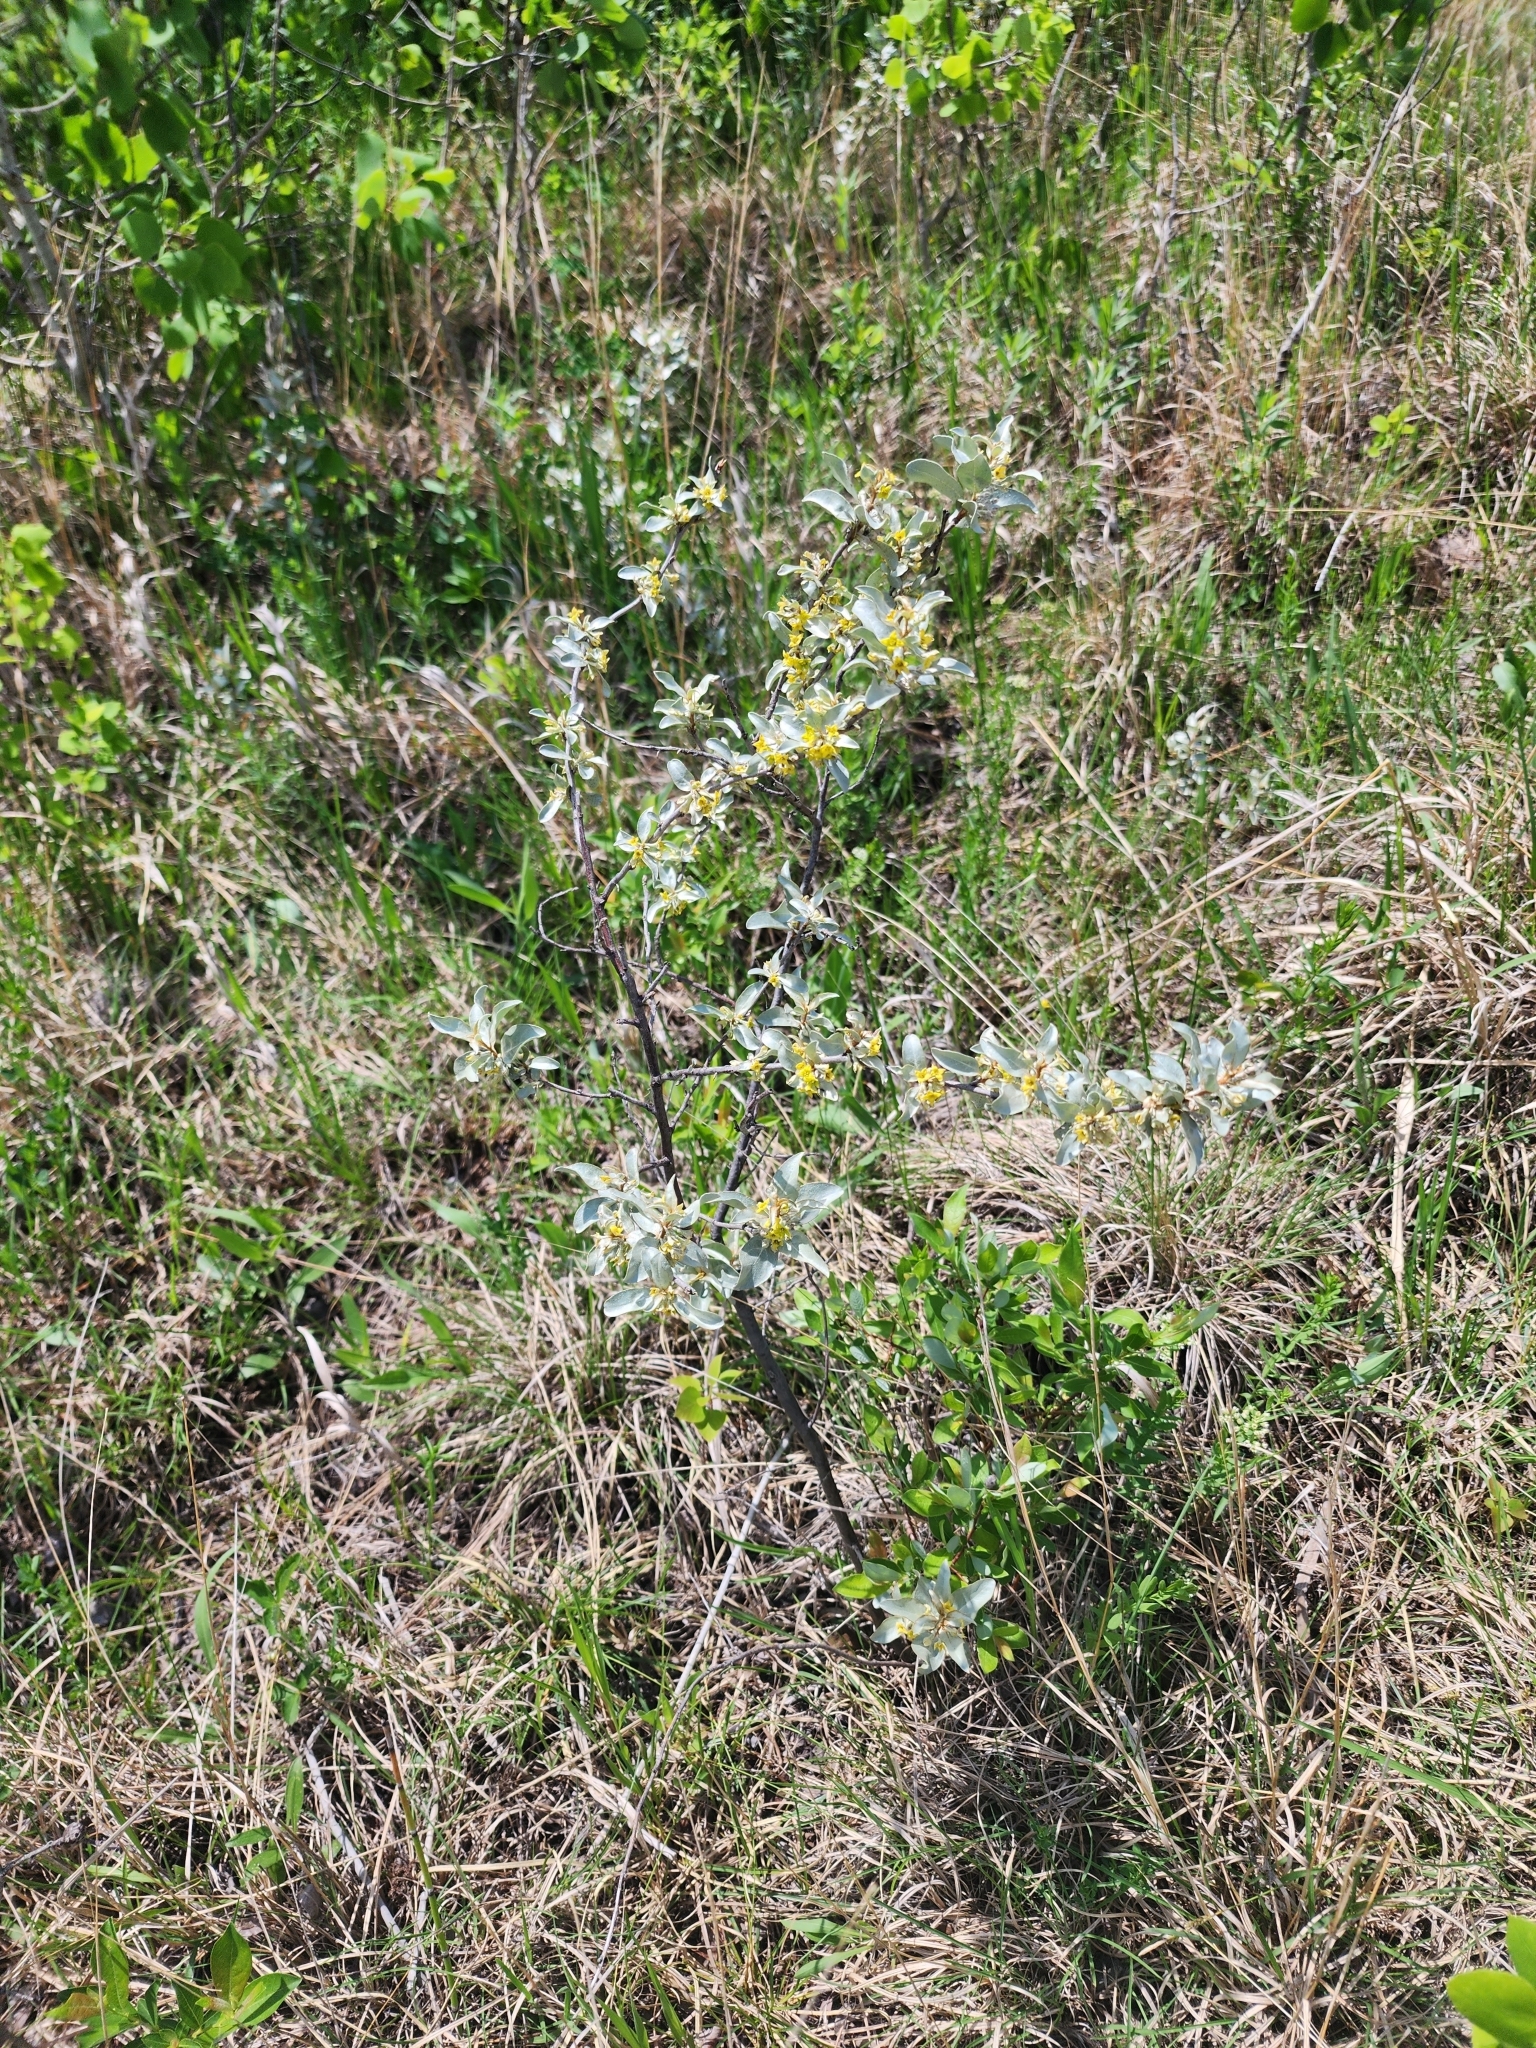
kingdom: Plantae
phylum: Tracheophyta
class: Magnoliopsida
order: Rosales
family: Elaeagnaceae
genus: Elaeagnus
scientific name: Elaeagnus commutata
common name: Silverberry
